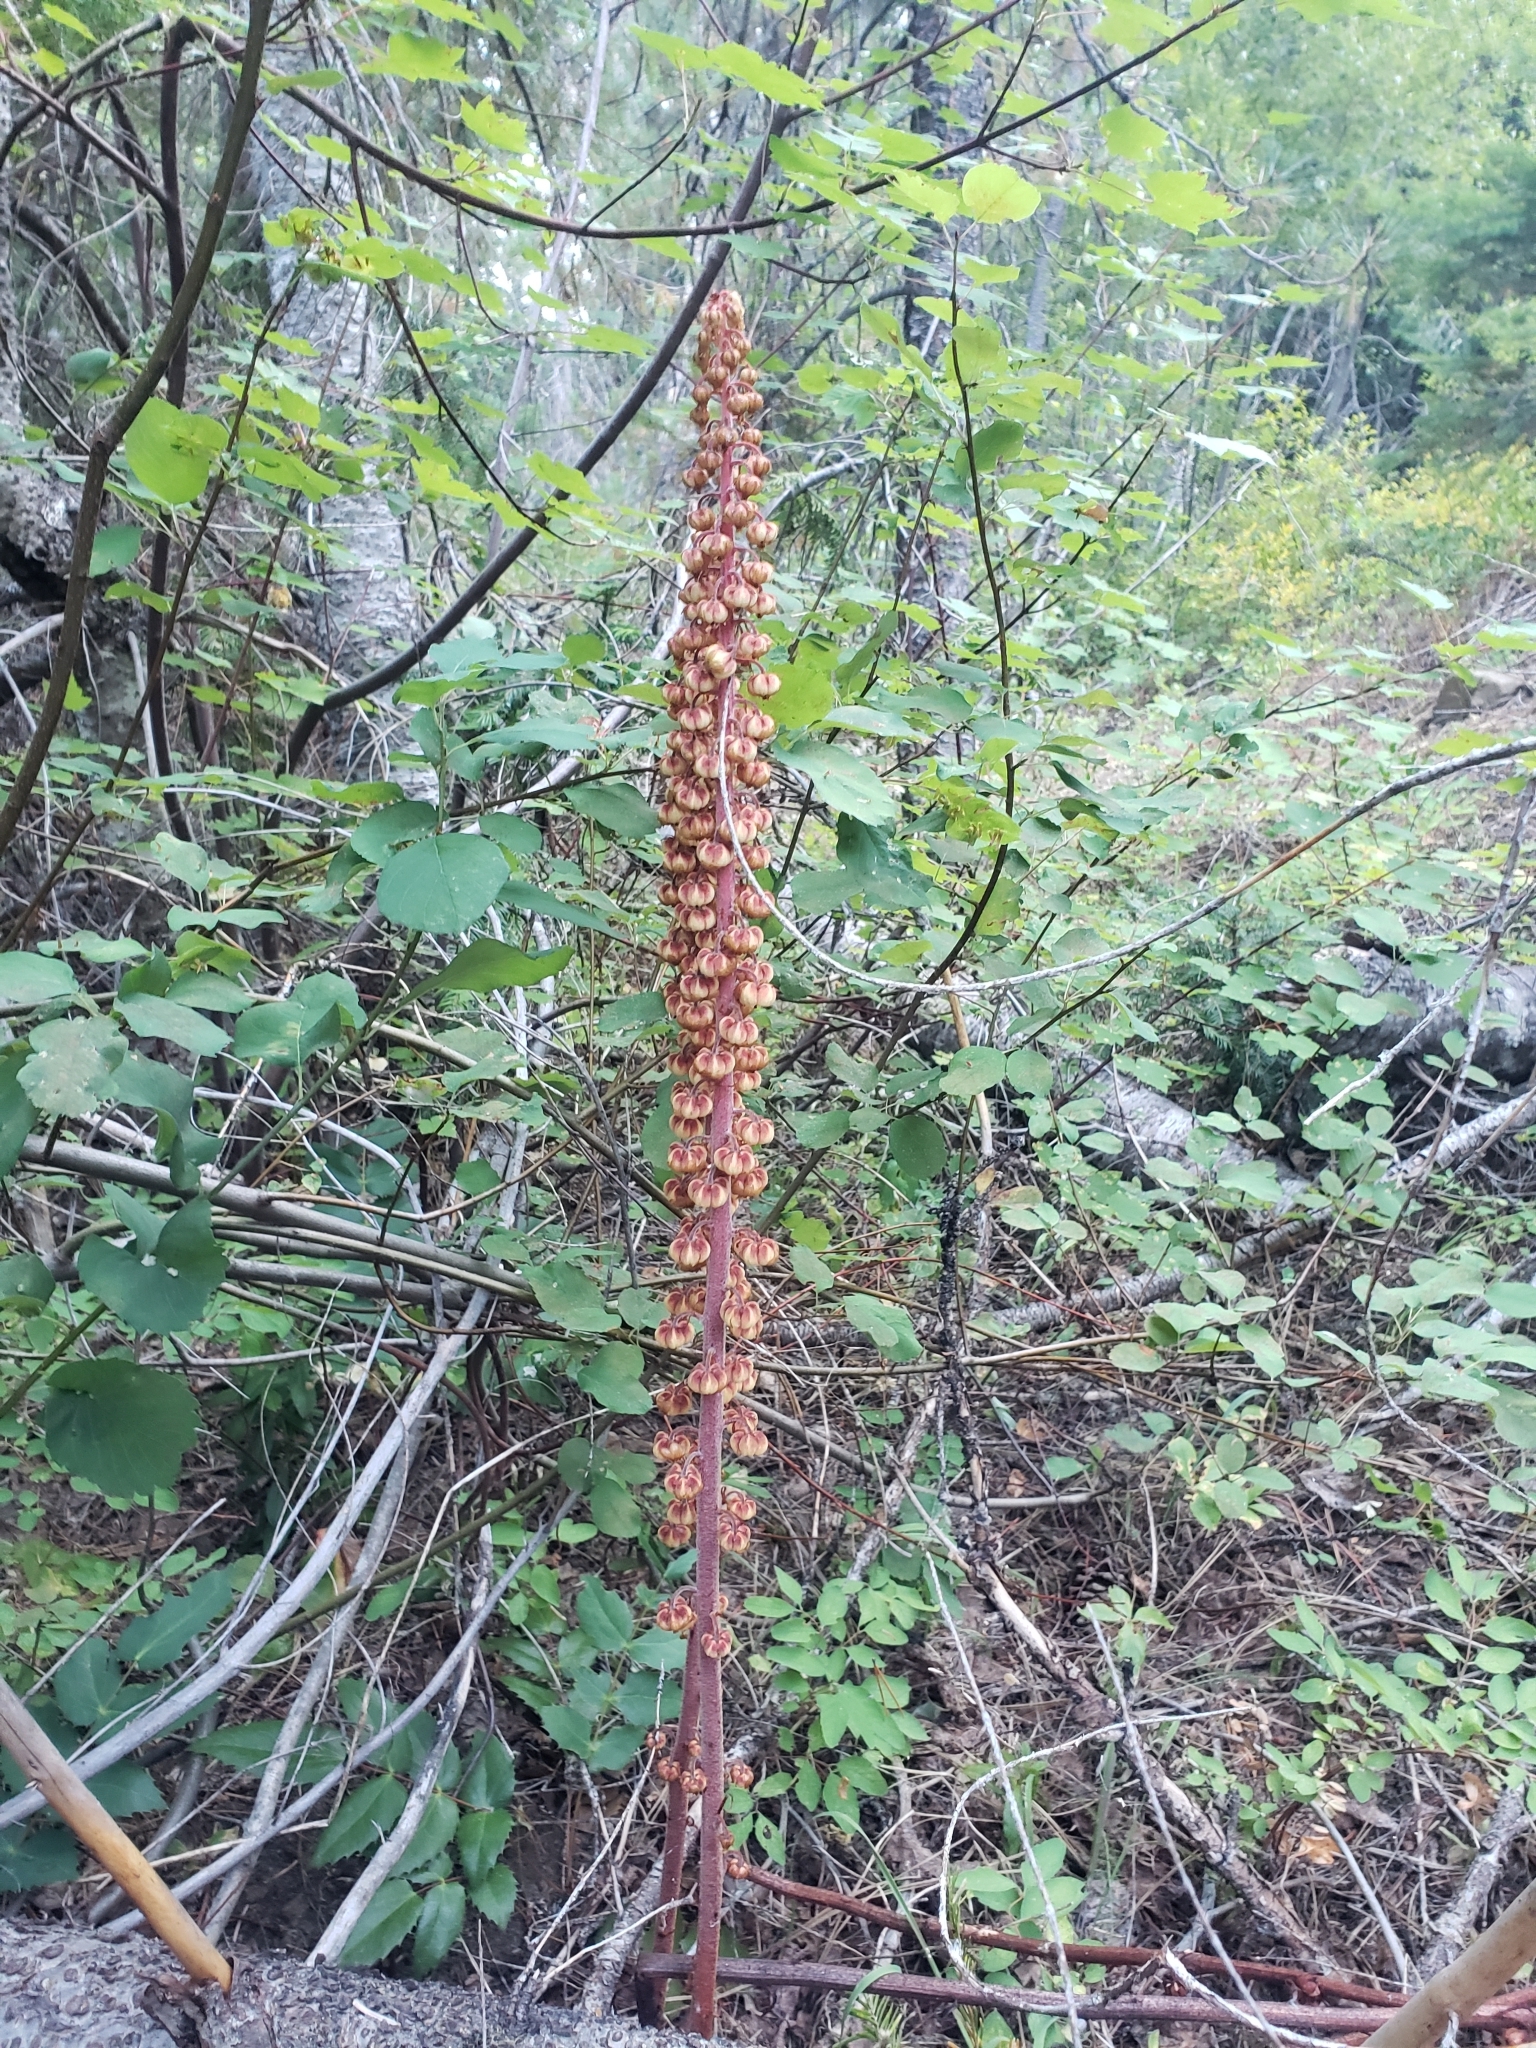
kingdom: Plantae
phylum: Tracheophyta
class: Magnoliopsida
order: Ericales
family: Ericaceae
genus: Pterospora
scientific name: Pterospora andromedea
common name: Giant bird's-nest
